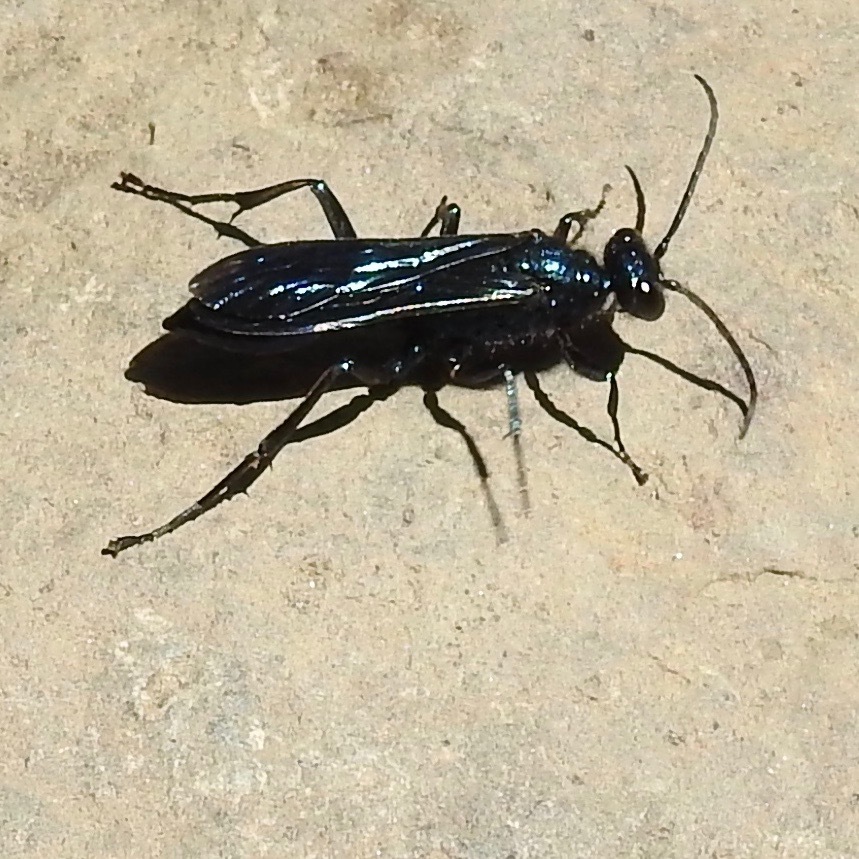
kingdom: Animalia
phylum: Arthropoda
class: Insecta
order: Hymenoptera
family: Sphecidae
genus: Chalybion
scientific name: Chalybion californicum
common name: Mud dauber
